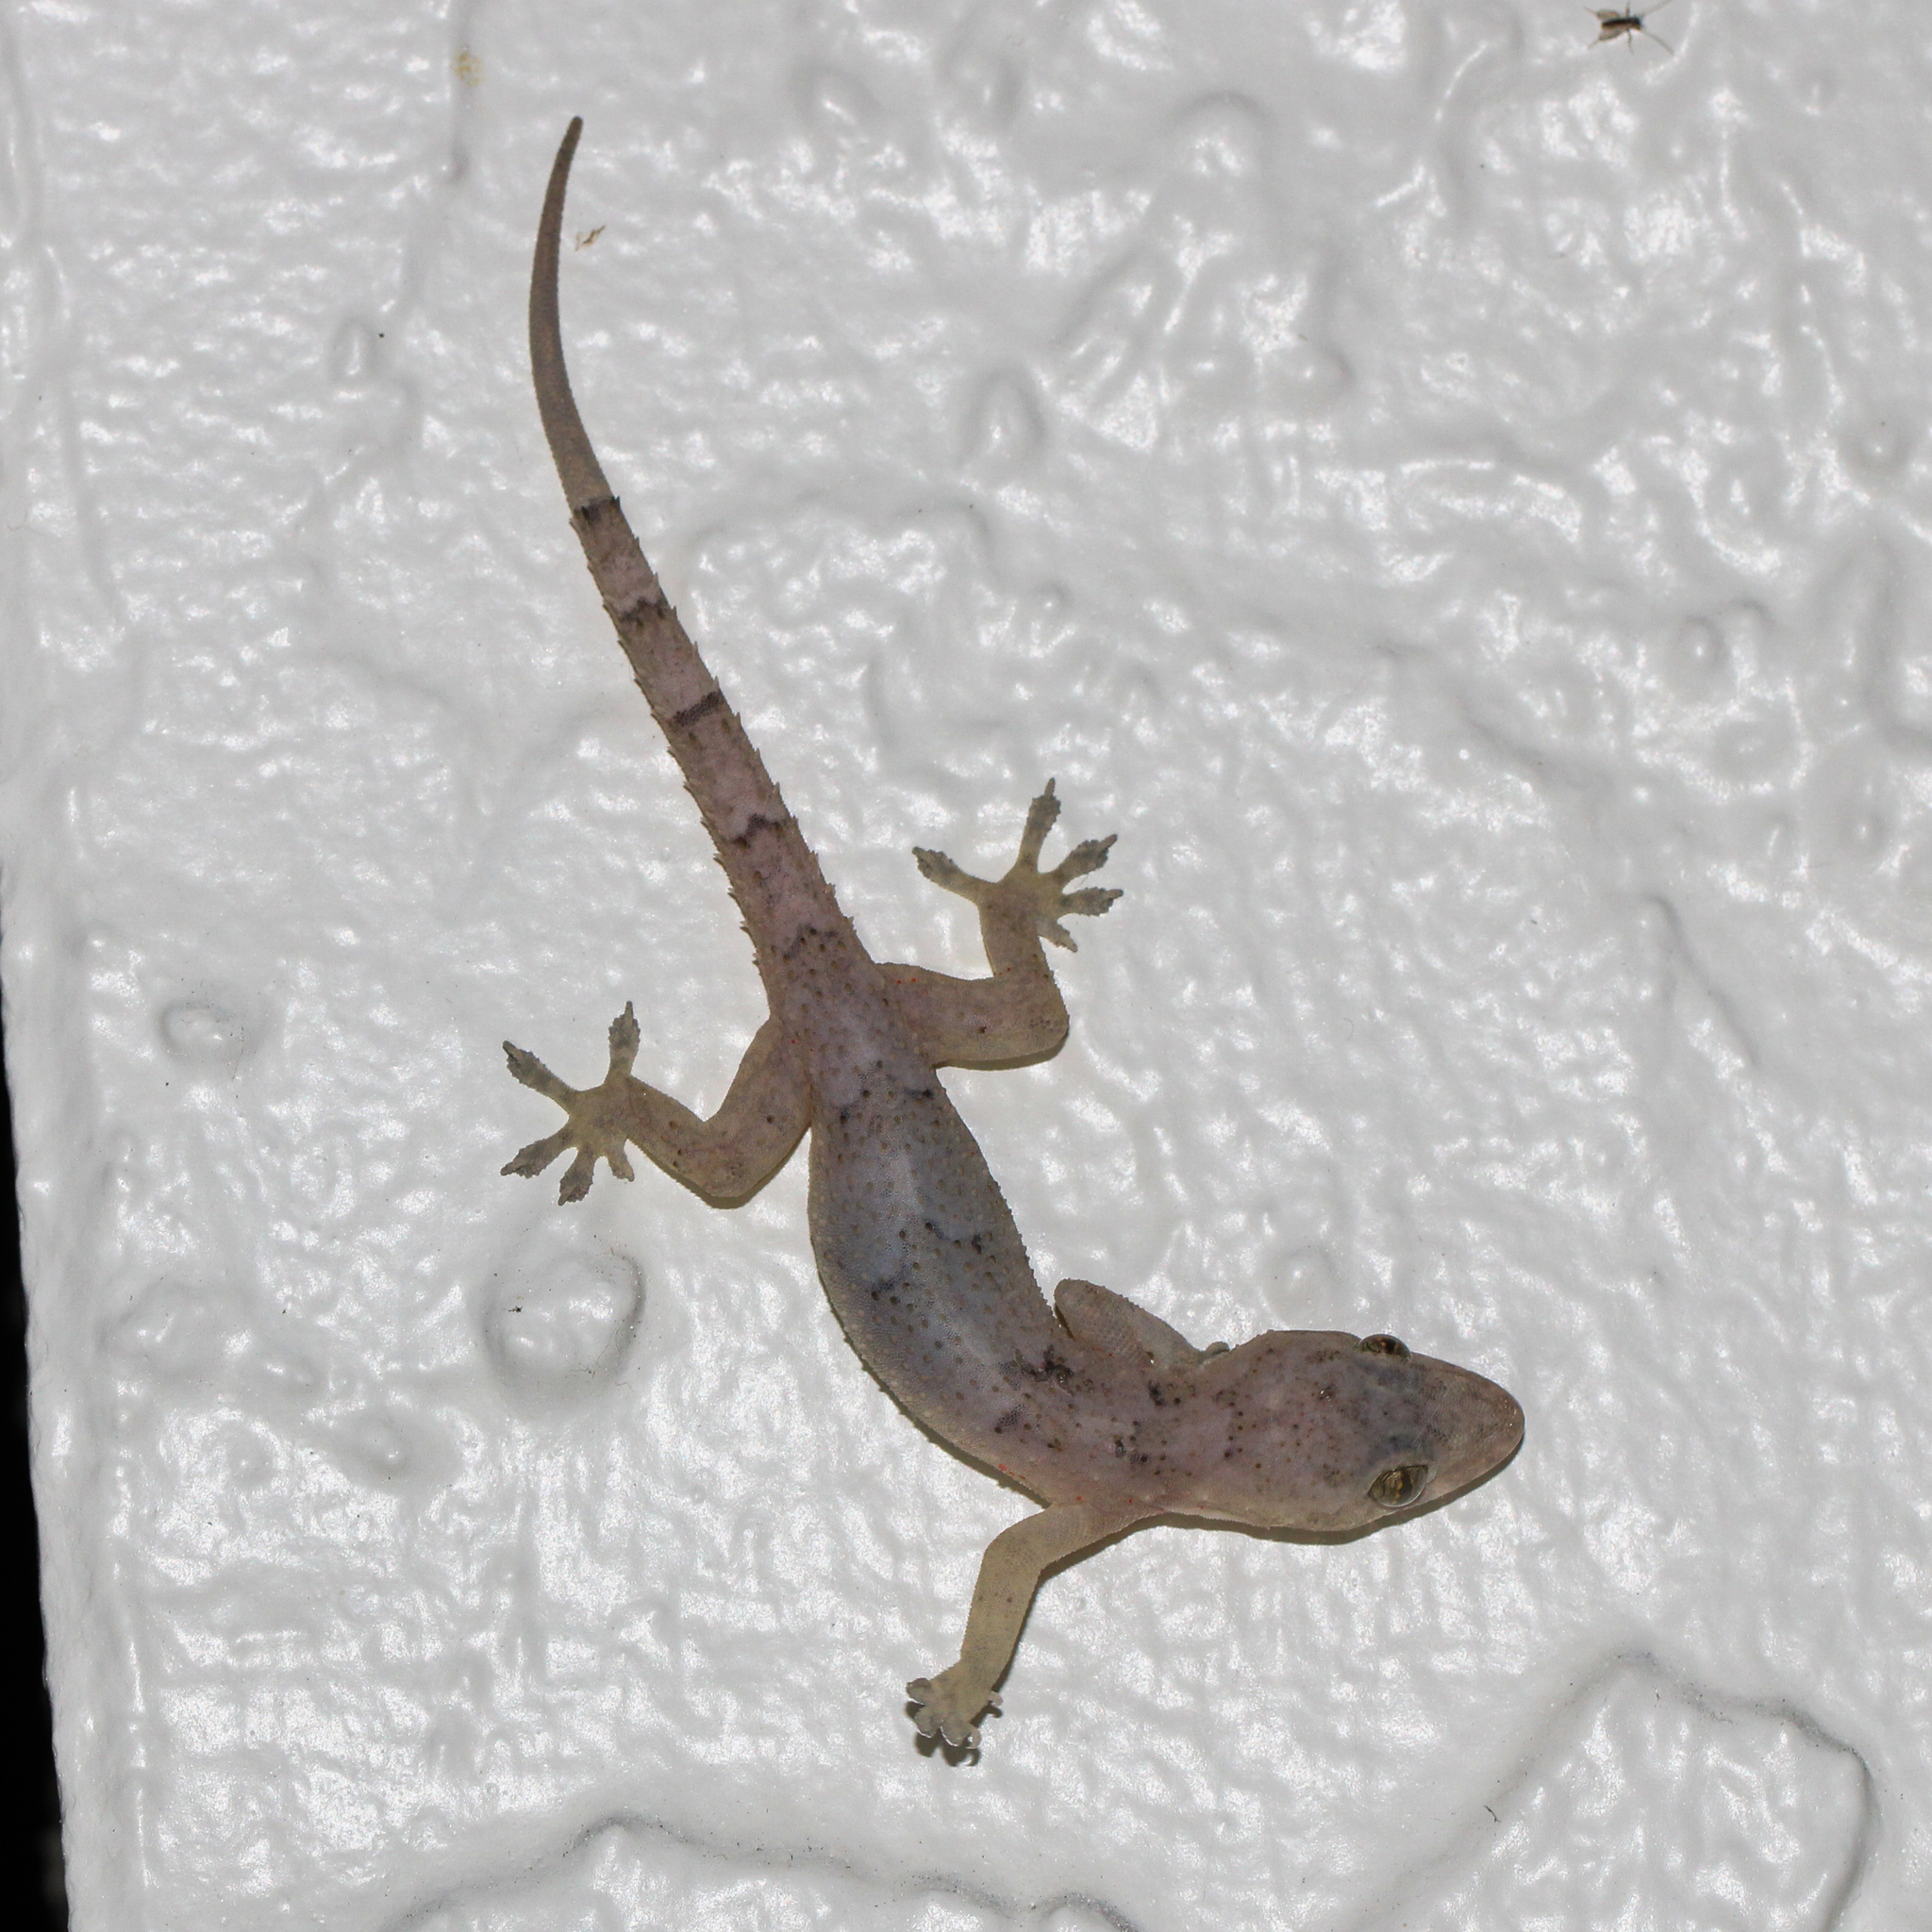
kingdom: Animalia
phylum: Chordata
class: Squamata
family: Gekkonidae
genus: Hemidactylus
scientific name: Hemidactylus mabouia
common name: House gecko
